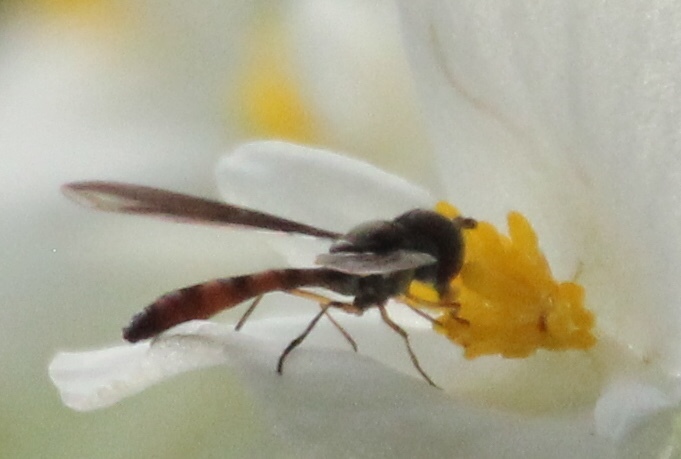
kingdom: Animalia
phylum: Arthropoda
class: Insecta
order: Diptera
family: Syrphidae
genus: Ocyptamus
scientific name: Ocyptamus fuscipennis
